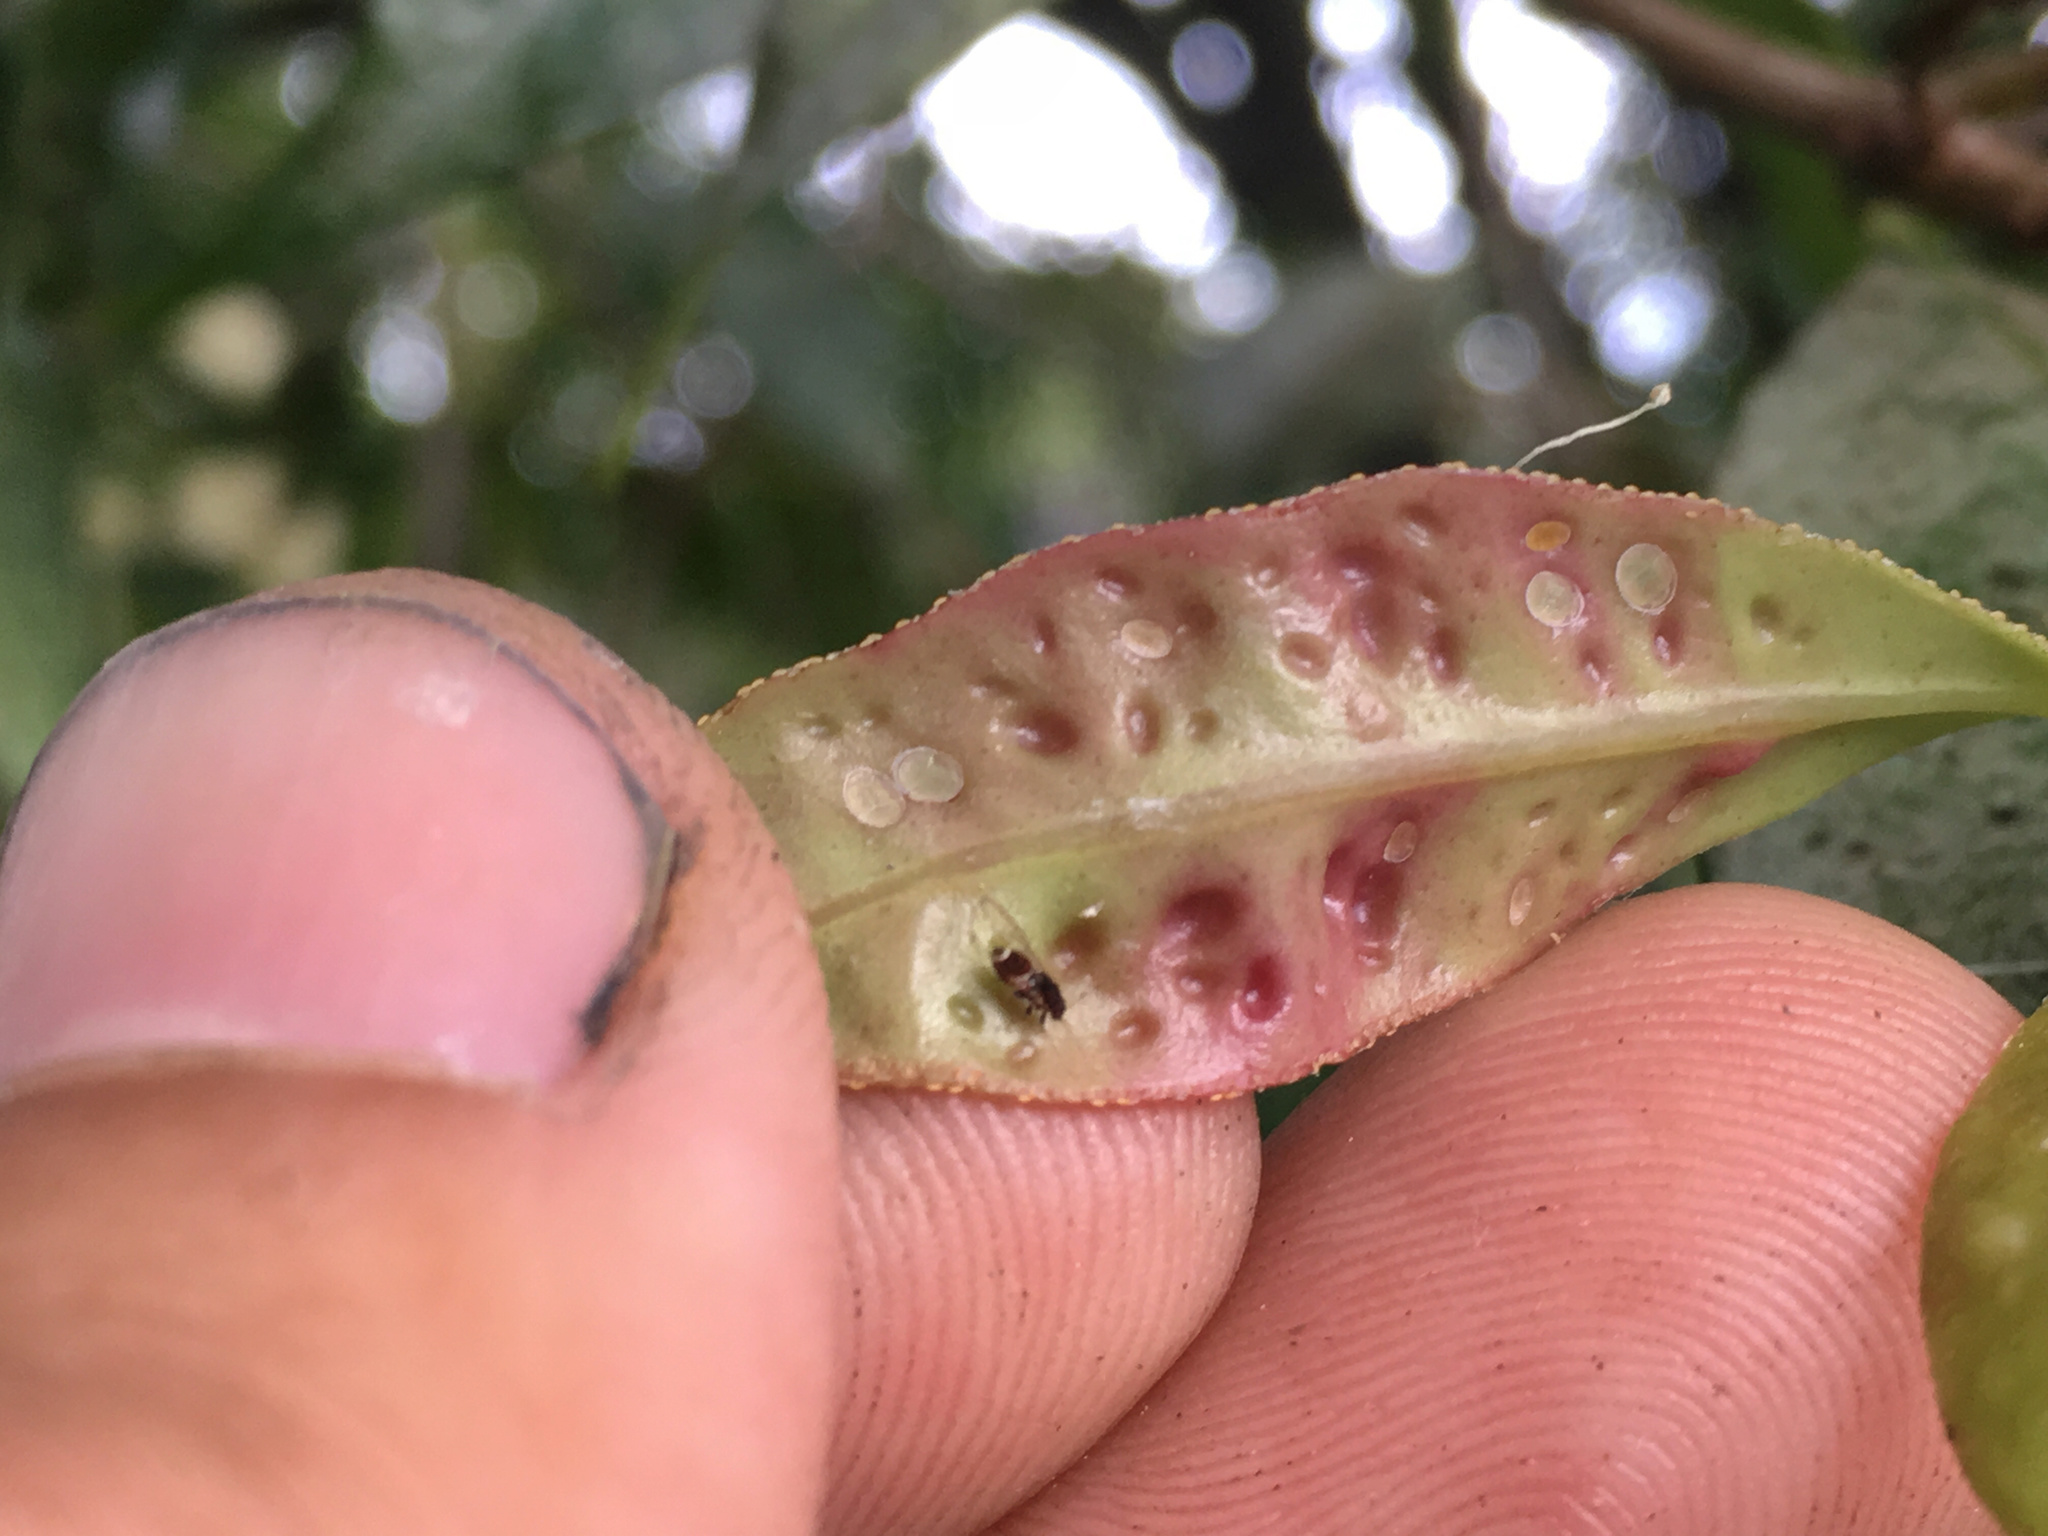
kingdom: Animalia
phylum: Arthropoda
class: Insecta
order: Hemiptera
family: Triozidae
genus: Trioza
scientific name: Trioza adventicia
